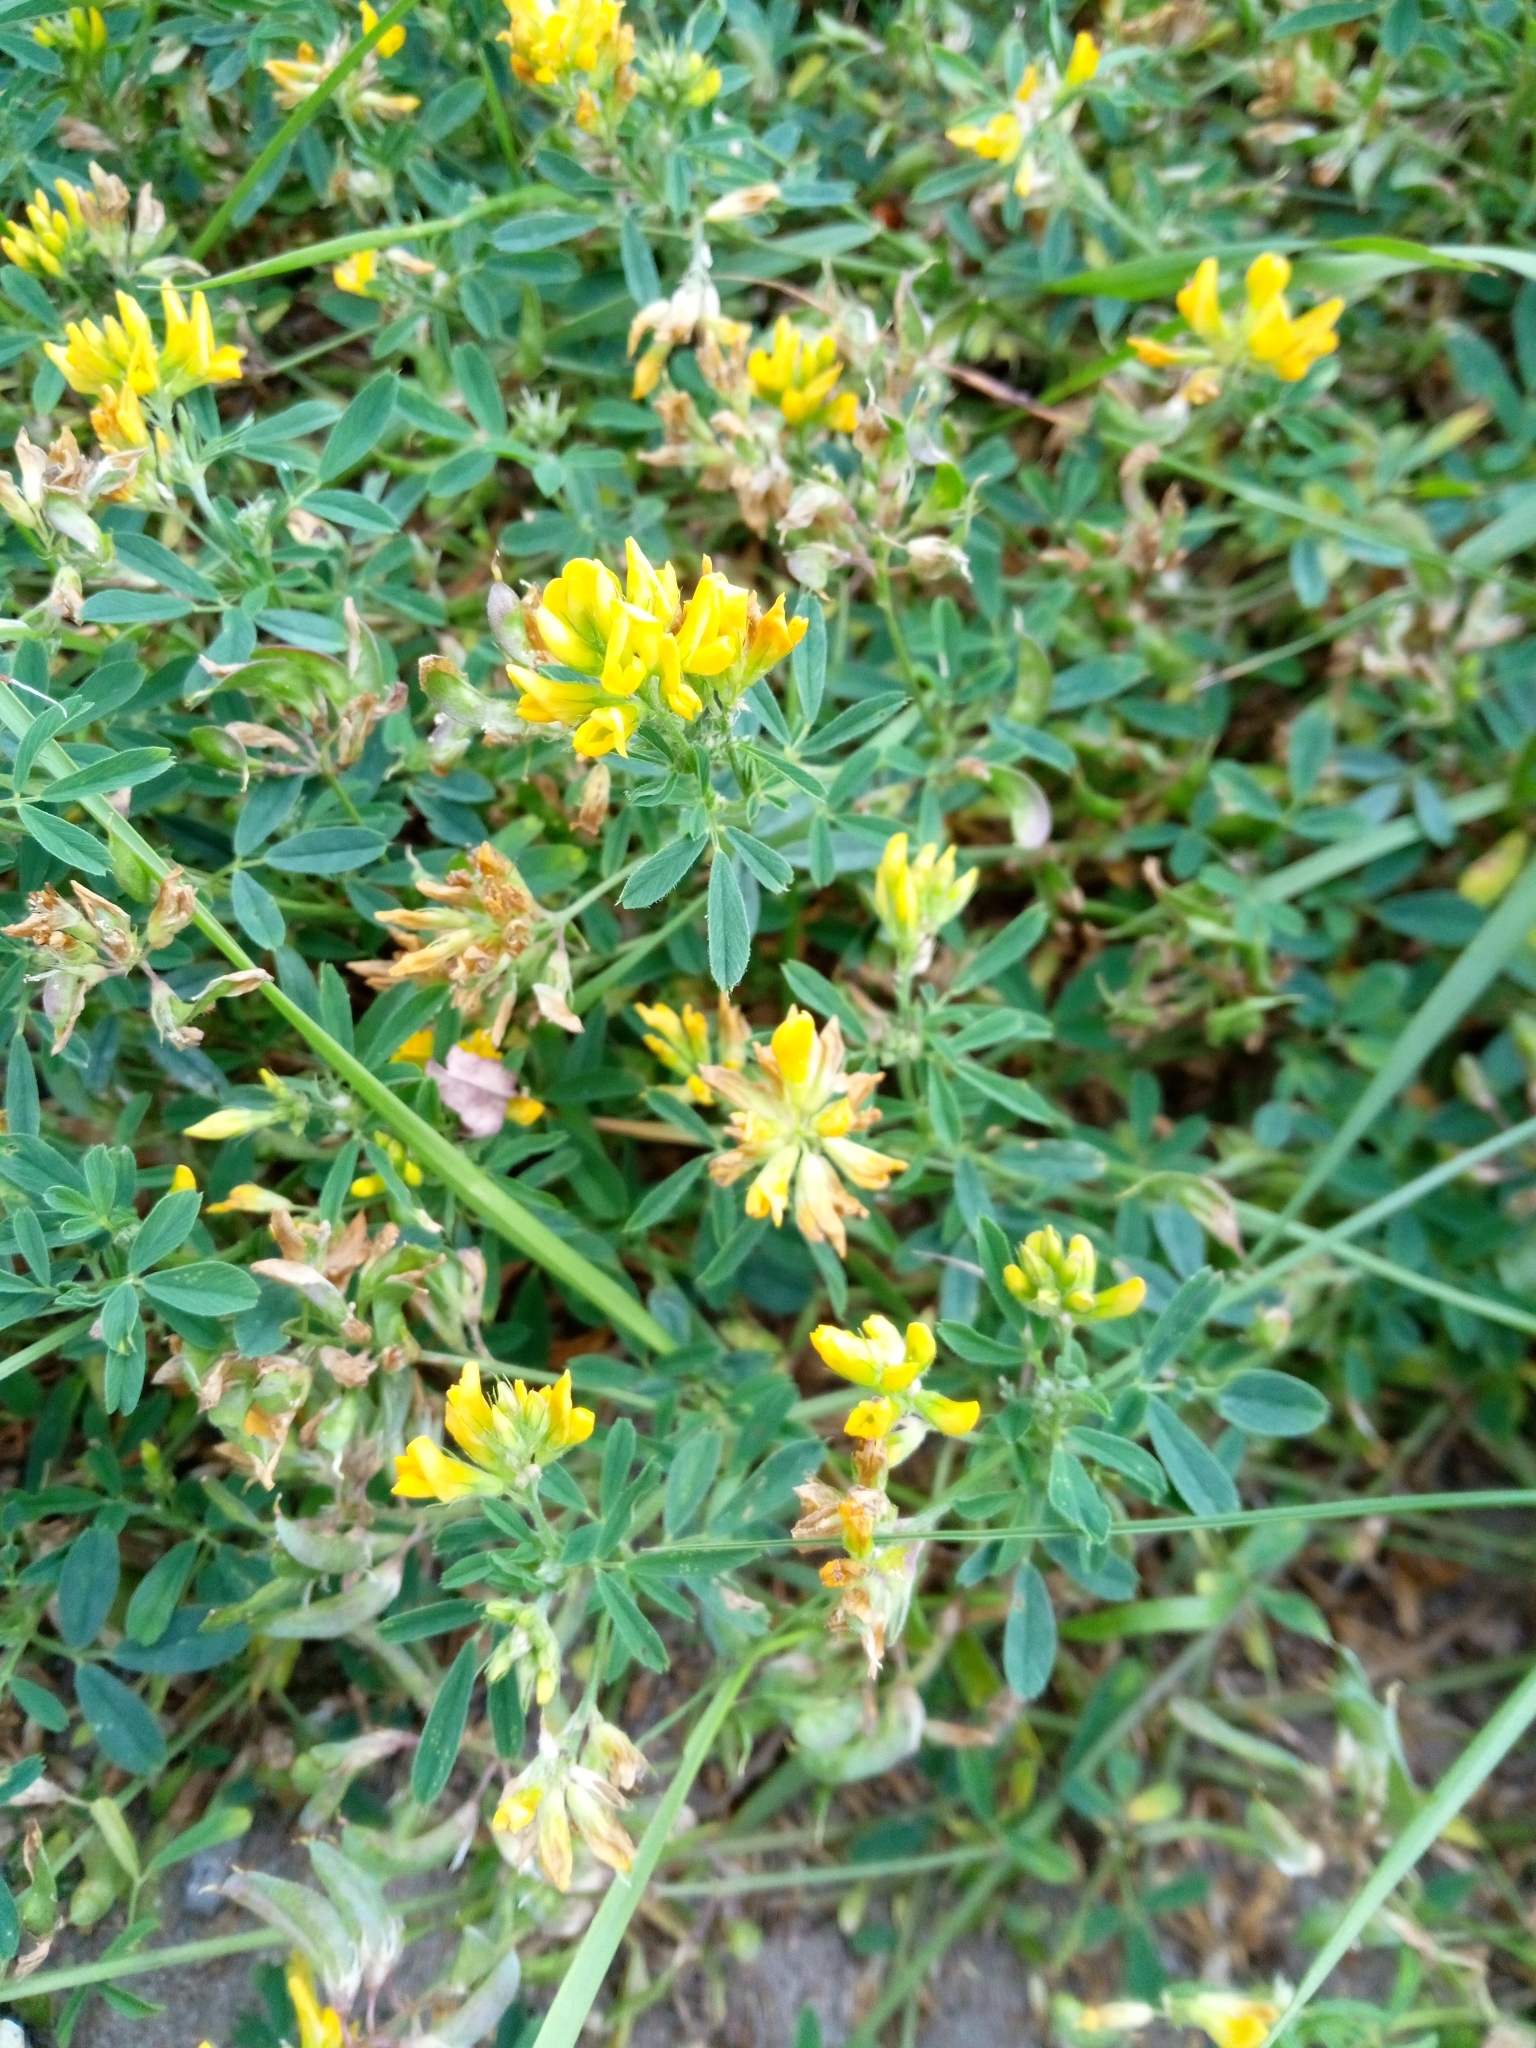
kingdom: Plantae
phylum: Tracheophyta
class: Magnoliopsida
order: Fabales
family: Fabaceae
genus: Medicago
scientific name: Medicago falcata
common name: Sickle medick
